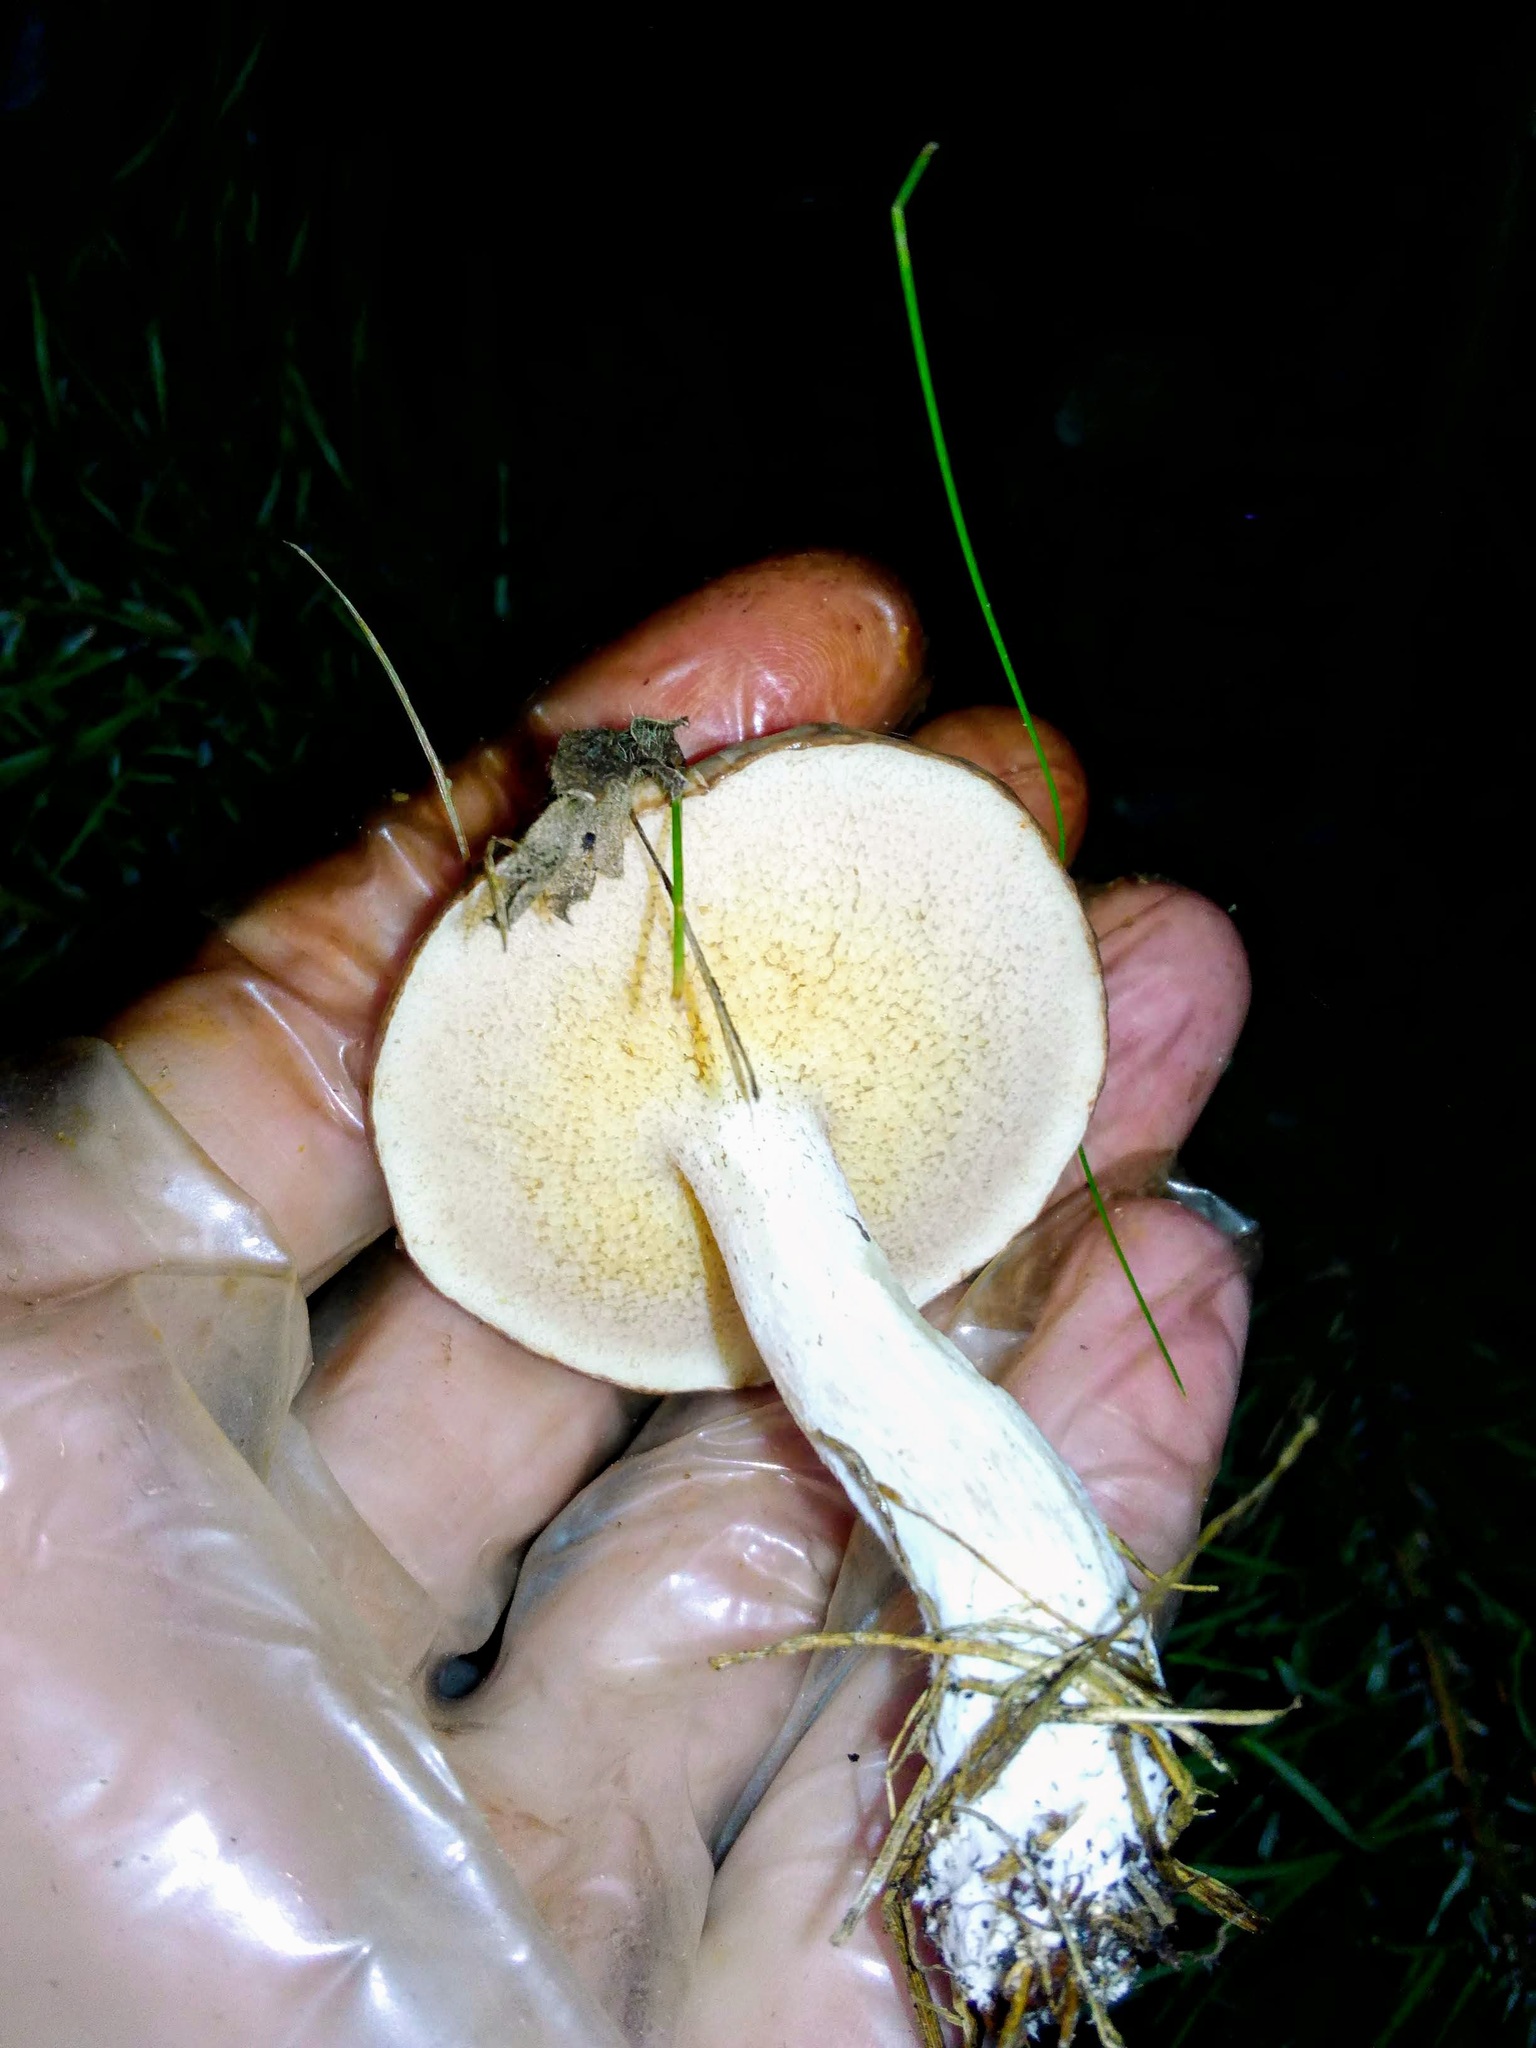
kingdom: Fungi
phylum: Basidiomycota
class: Agaricomycetes
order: Boletales
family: Suillaceae
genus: Suillus
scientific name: Suillus placidus
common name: Slippery white bolete
